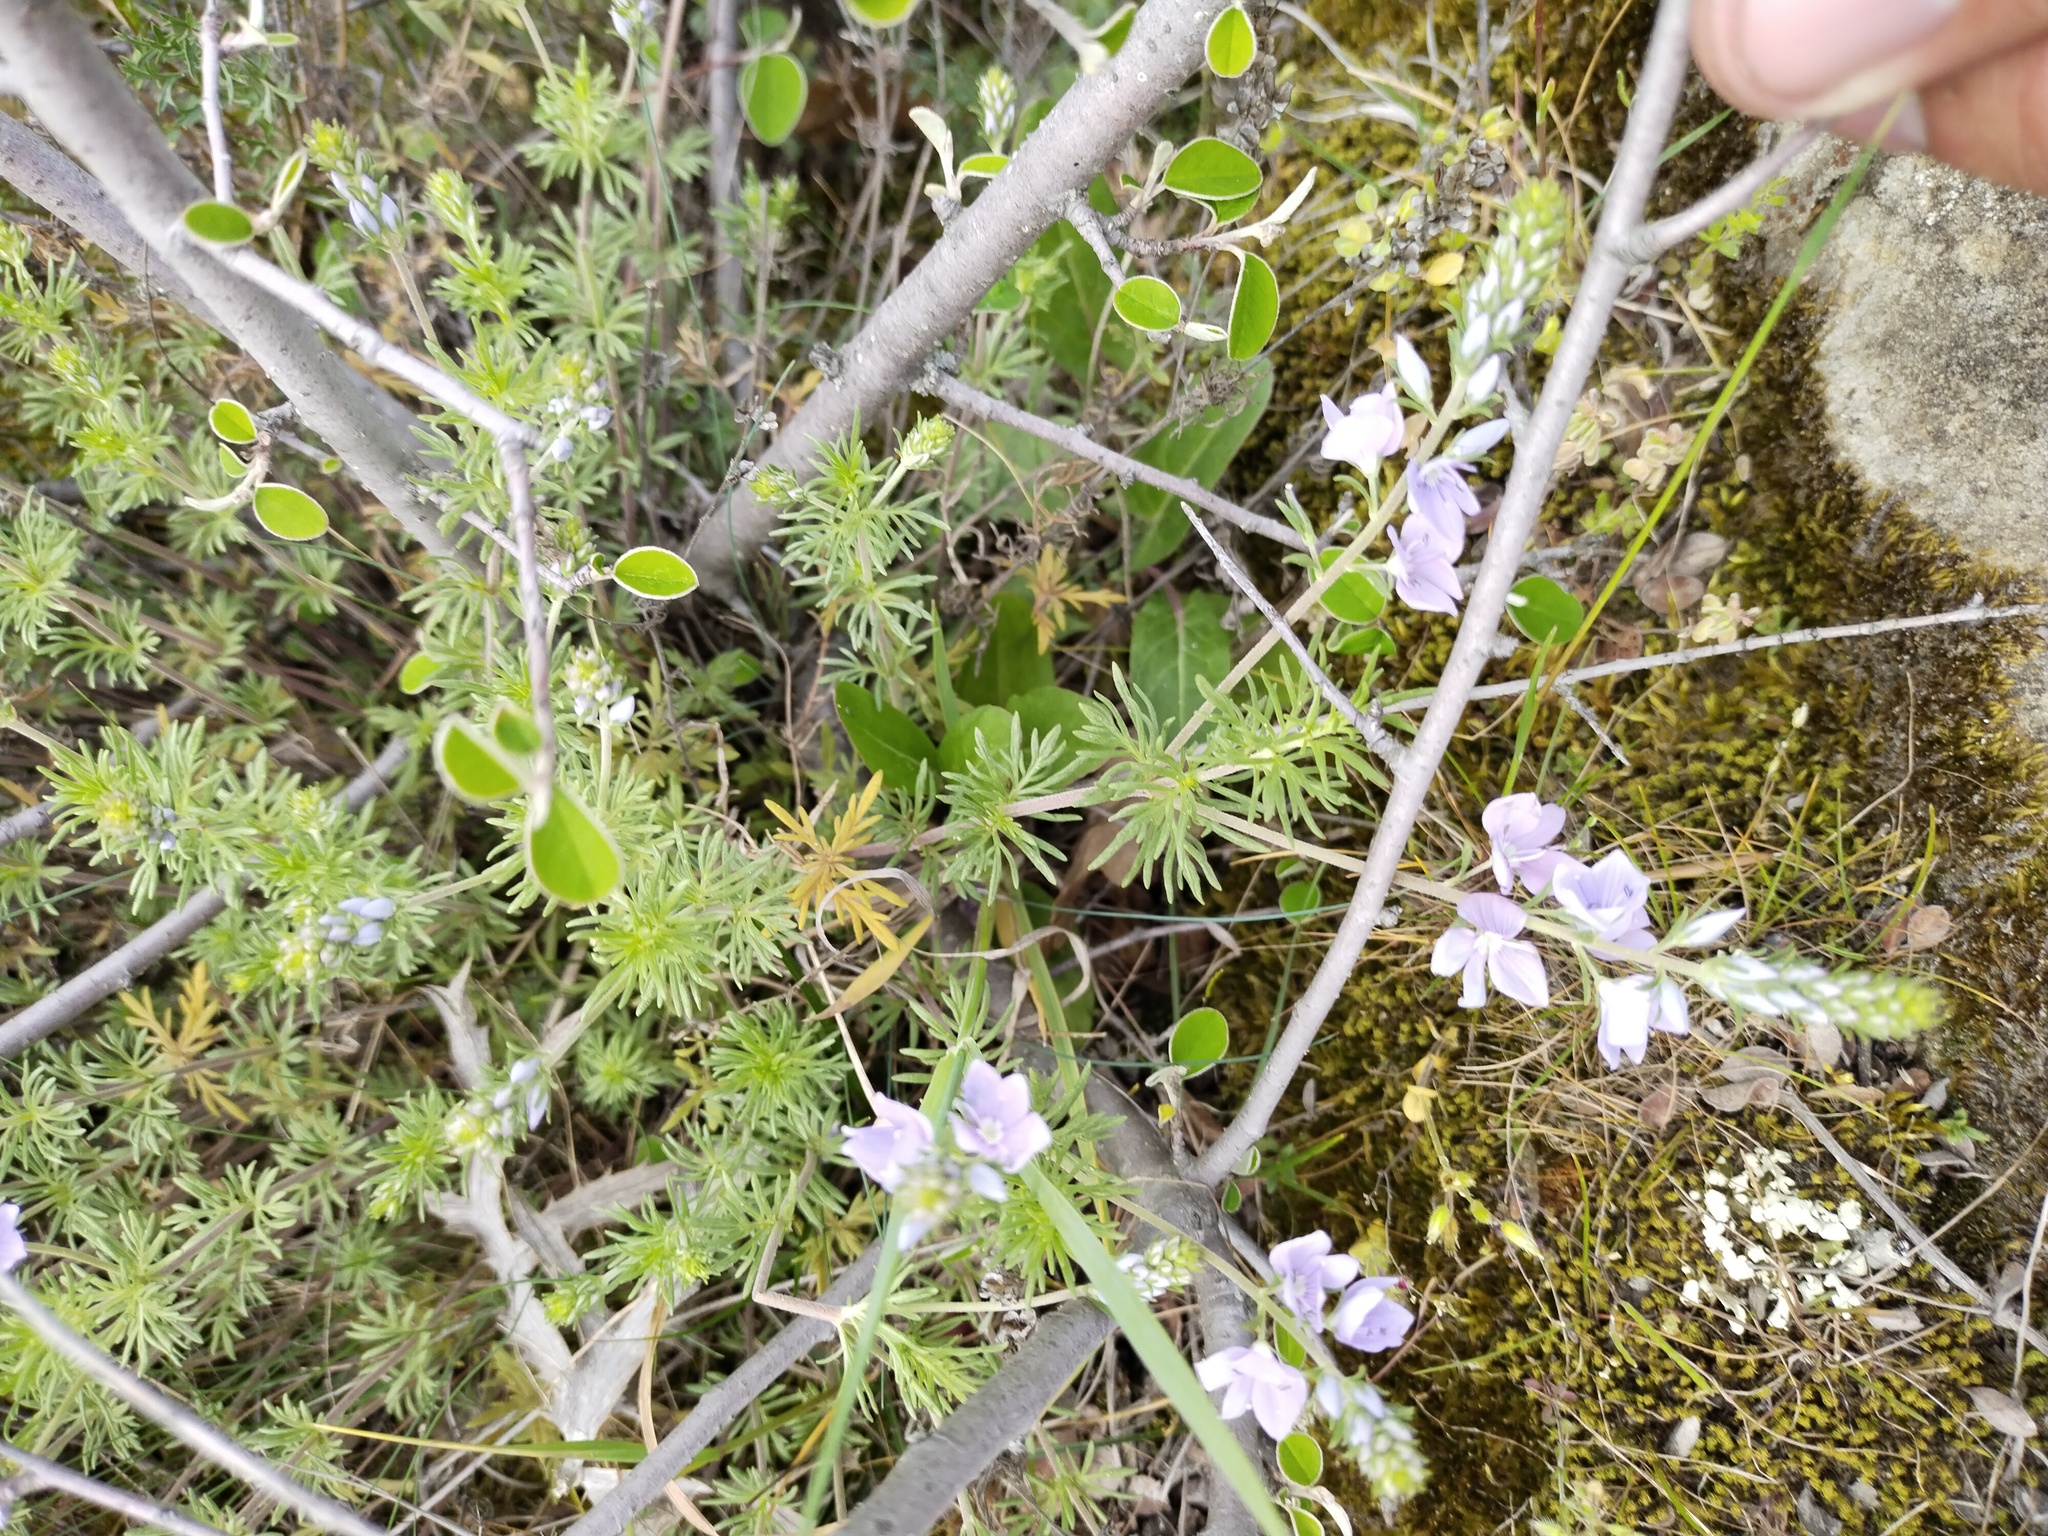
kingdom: Plantae
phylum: Tracheophyta
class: Magnoliopsida
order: Lamiales
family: Plantaginaceae
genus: Veronica
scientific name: Veronica multifida
